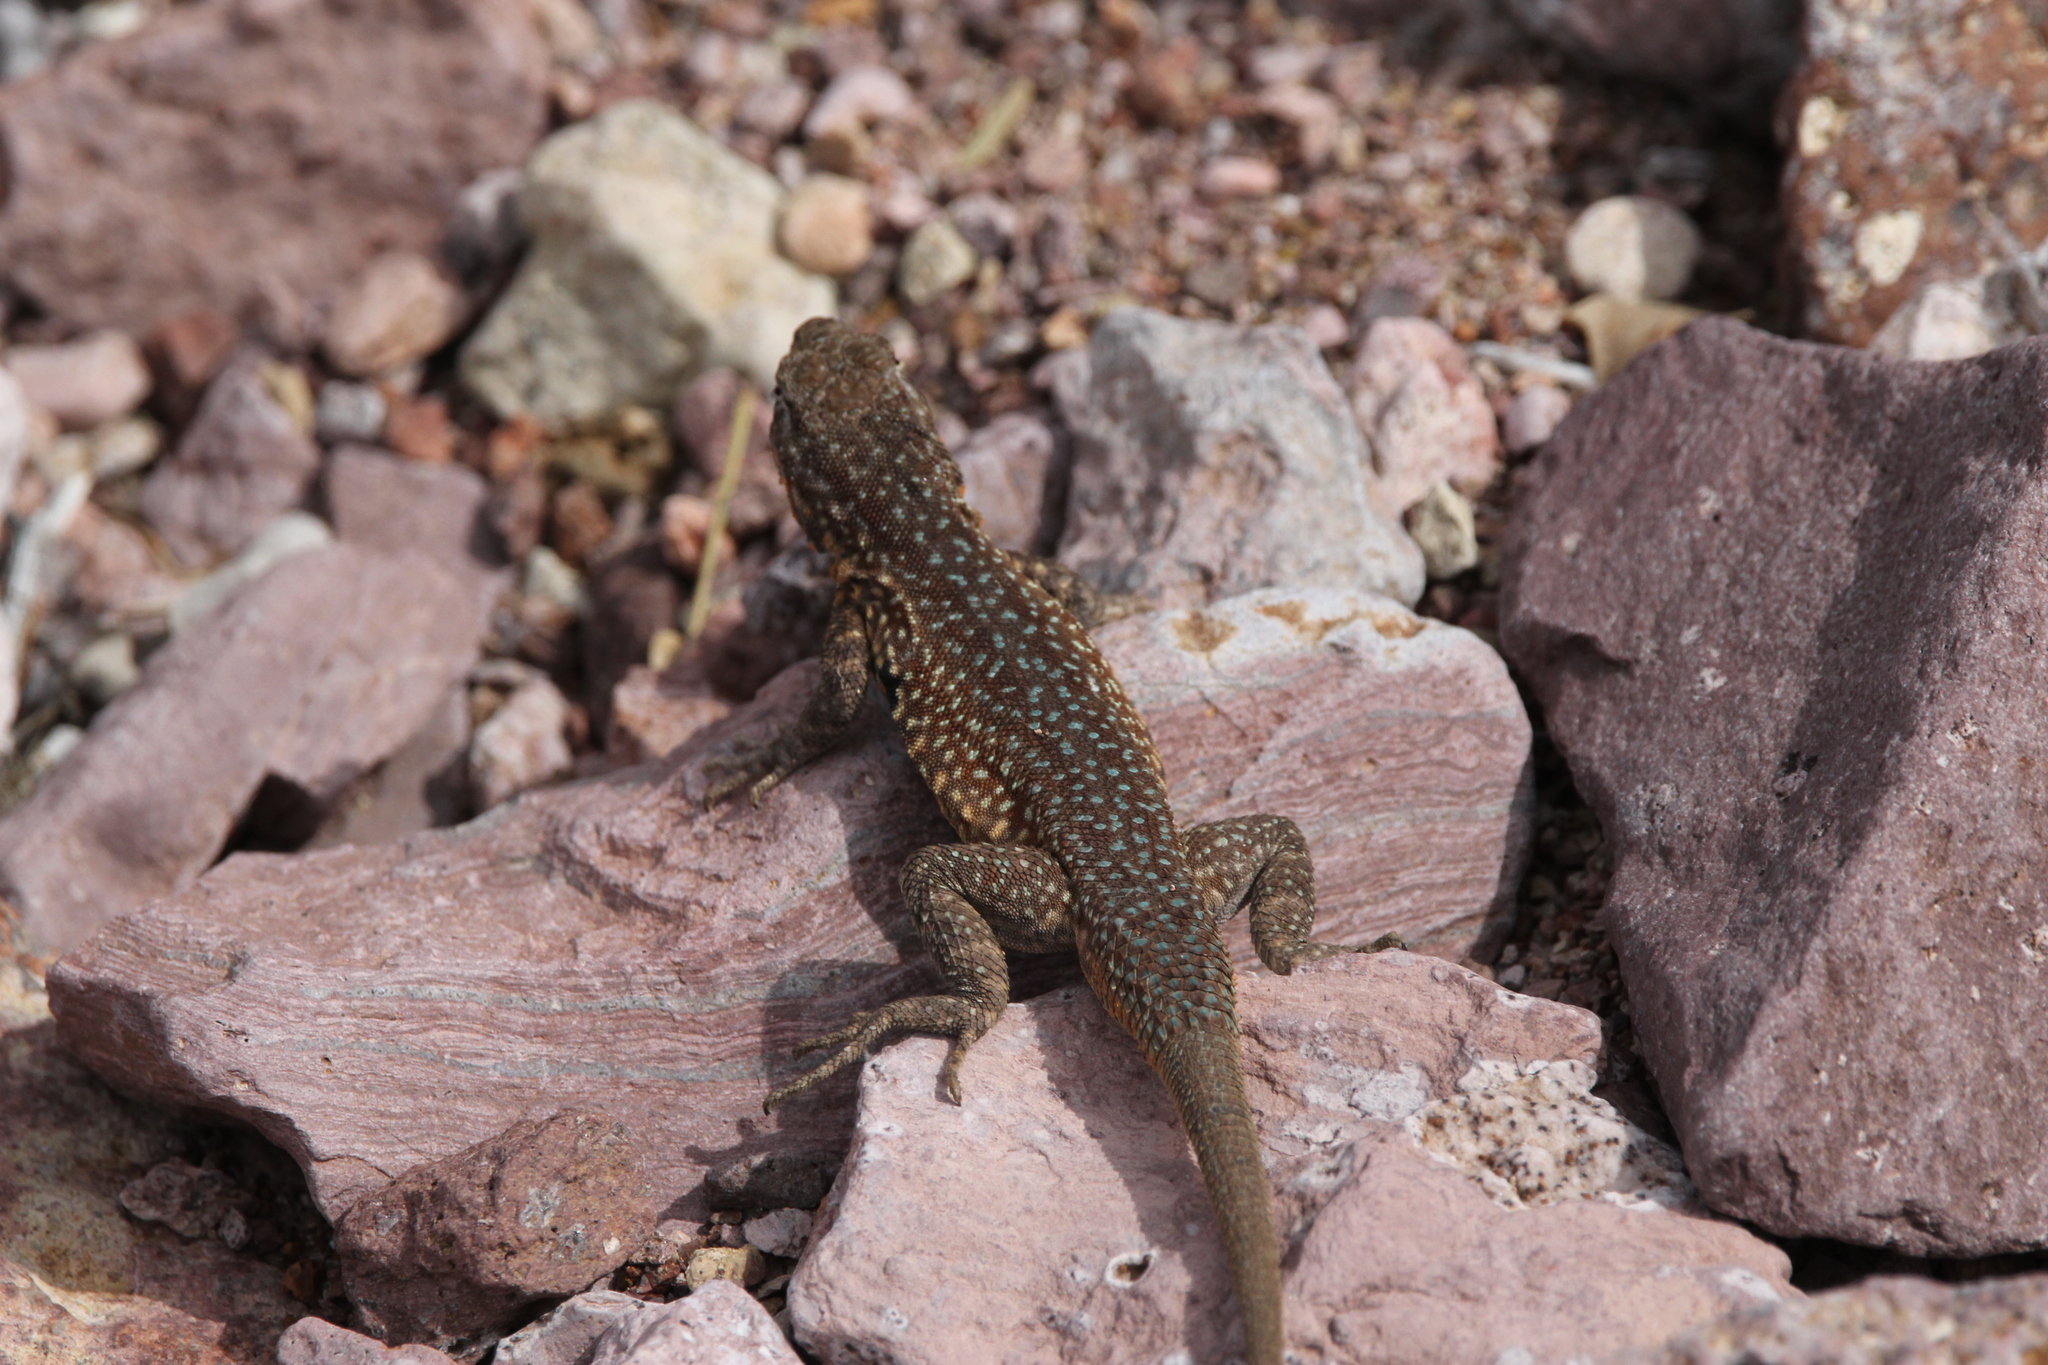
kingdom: Animalia
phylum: Chordata
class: Squamata
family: Phrynosomatidae
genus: Uta
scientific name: Uta stansburiana
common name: Side-blotched lizard
